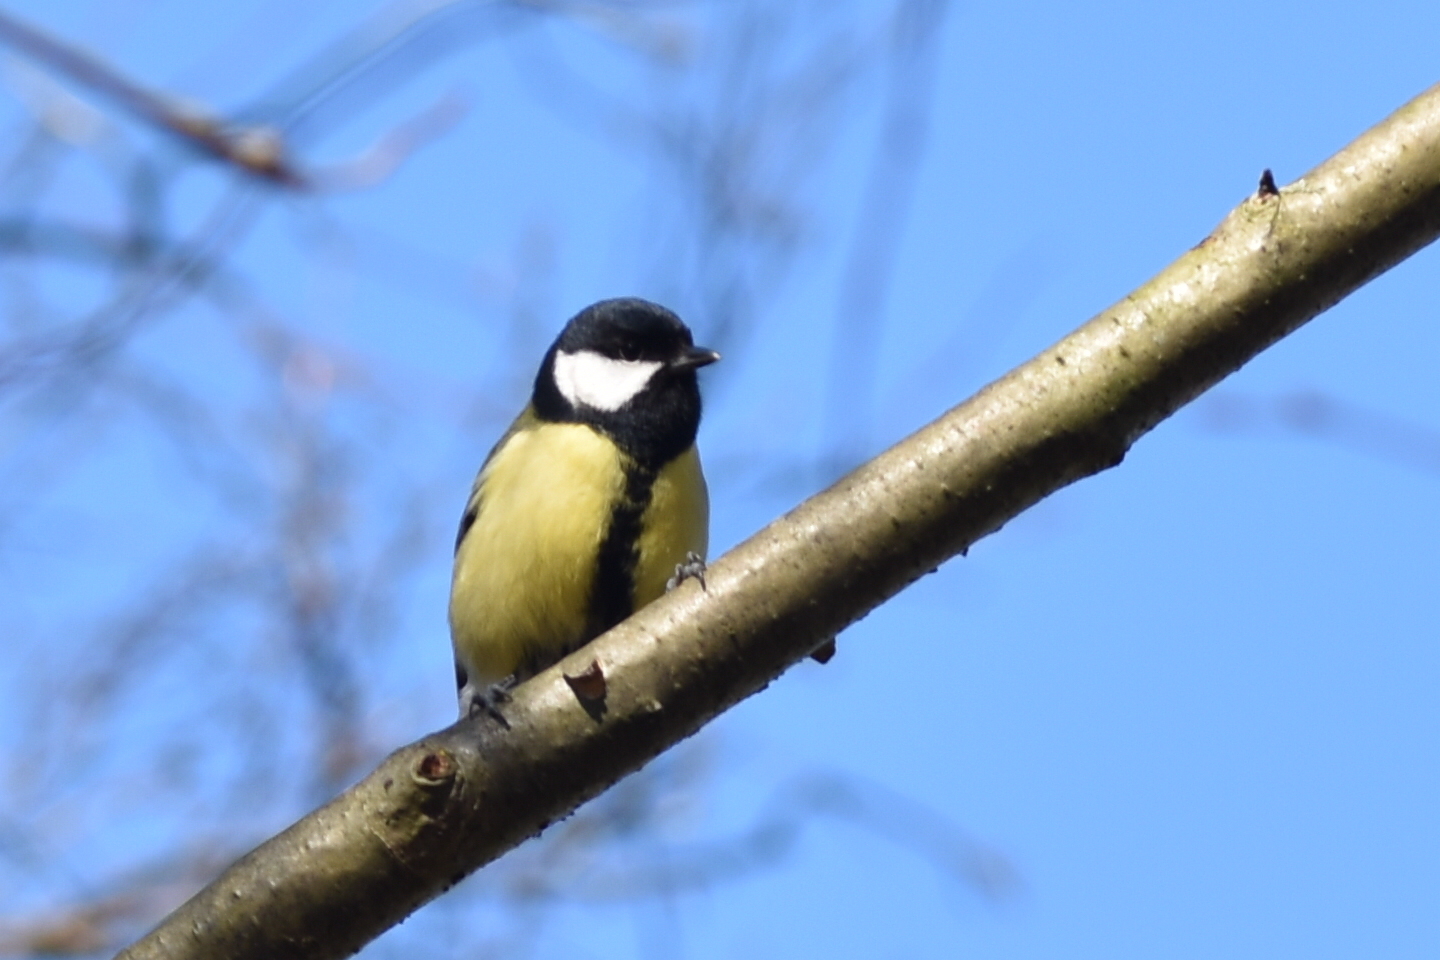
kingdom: Animalia
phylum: Chordata
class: Aves
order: Passeriformes
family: Paridae
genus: Parus
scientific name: Parus major
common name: Great tit
